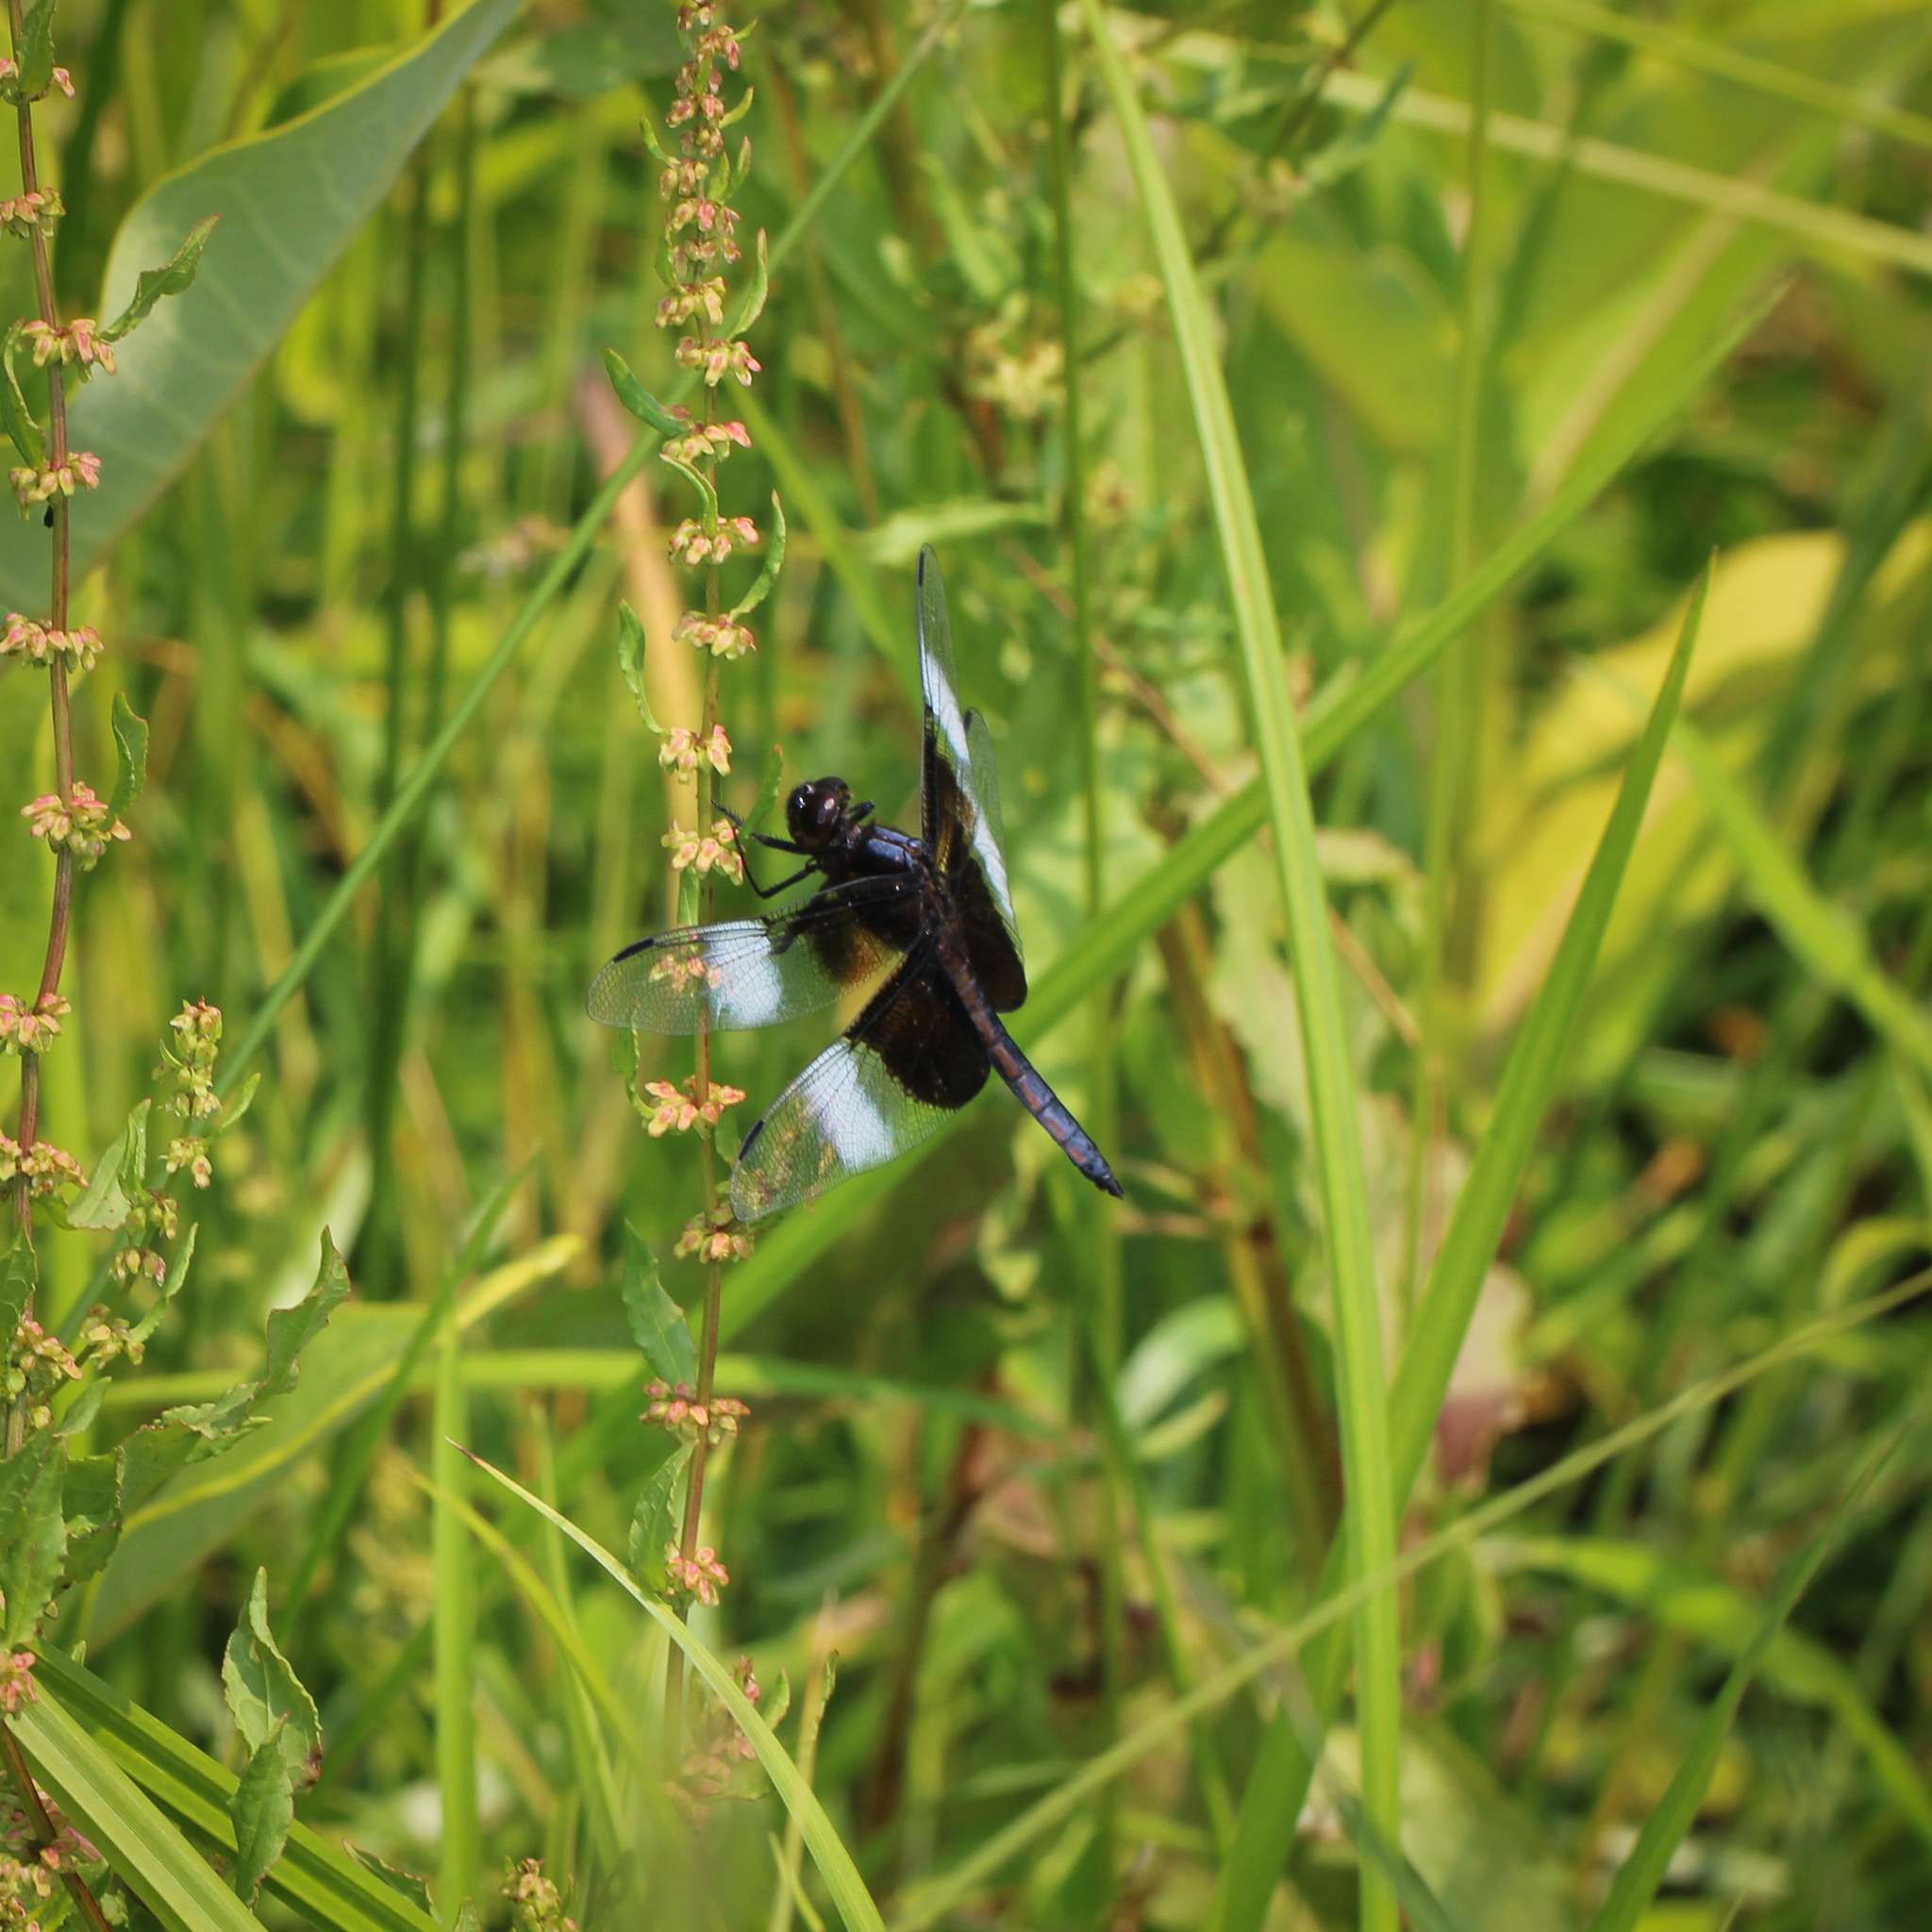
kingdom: Animalia
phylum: Arthropoda
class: Insecta
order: Odonata
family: Libellulidae
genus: Libellula
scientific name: Libellula luctuosa
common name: Widow skimmer
